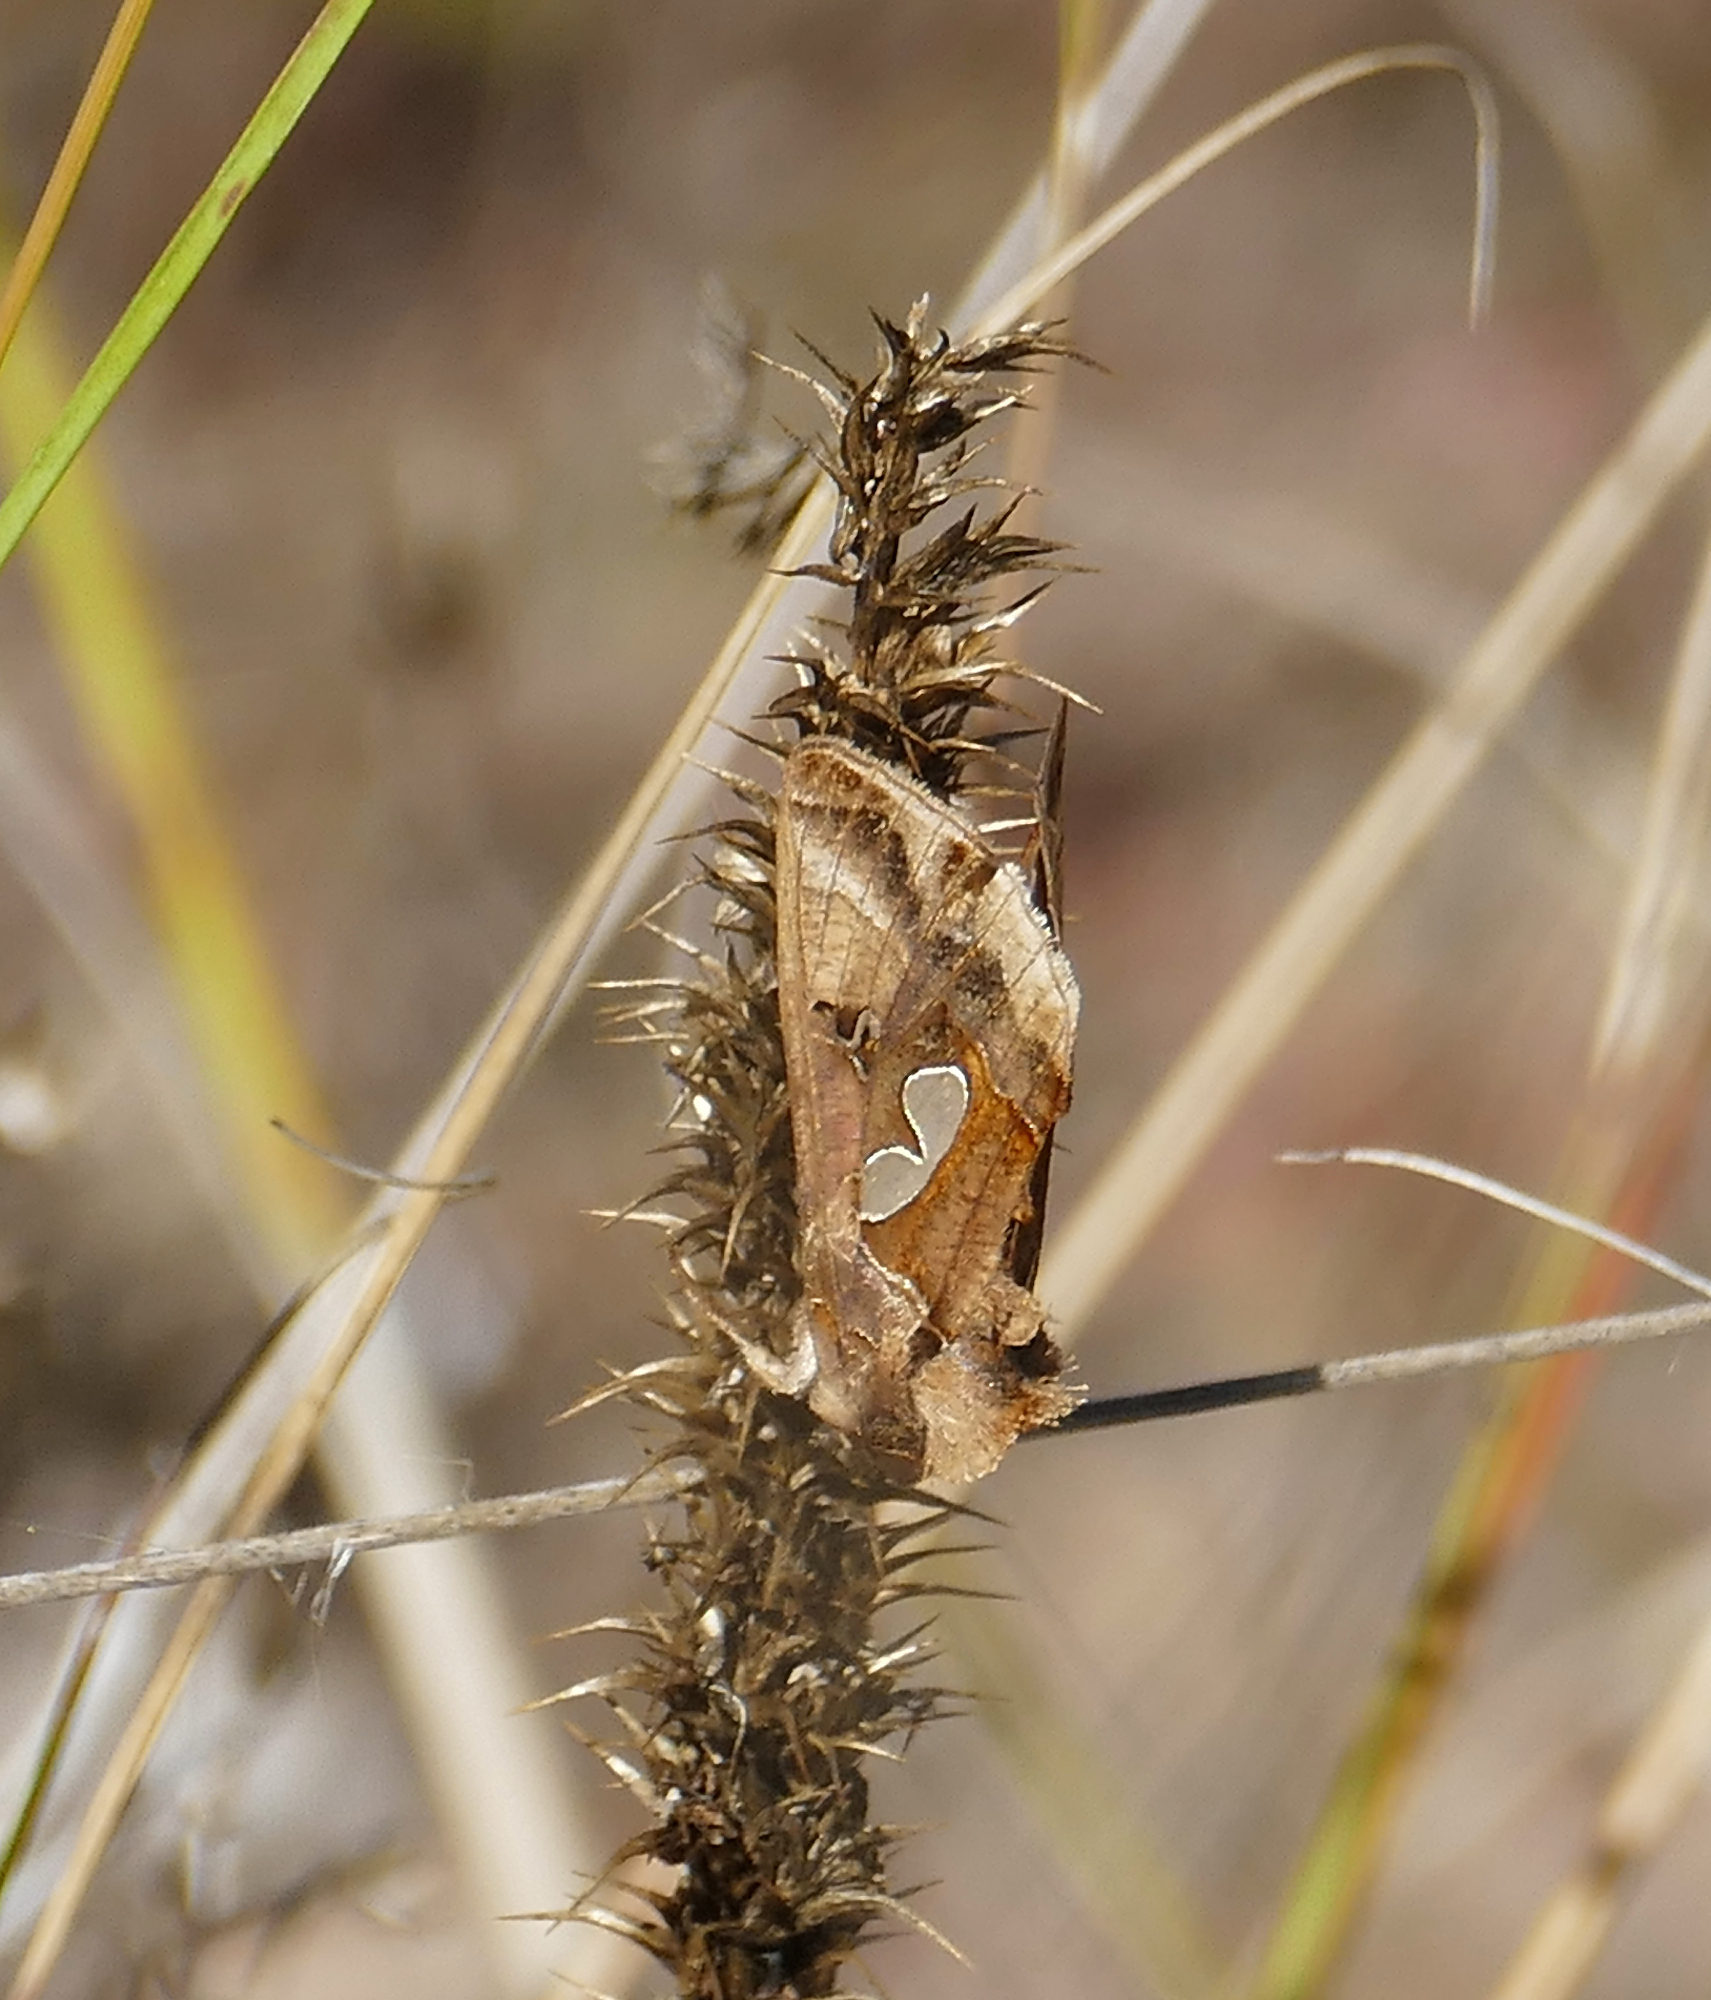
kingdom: Animalia
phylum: Arthropoda
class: Insecta
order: Lepidoptera
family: Noctuidae
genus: Megalographa
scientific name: Megalographa biloba
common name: Cutworm
